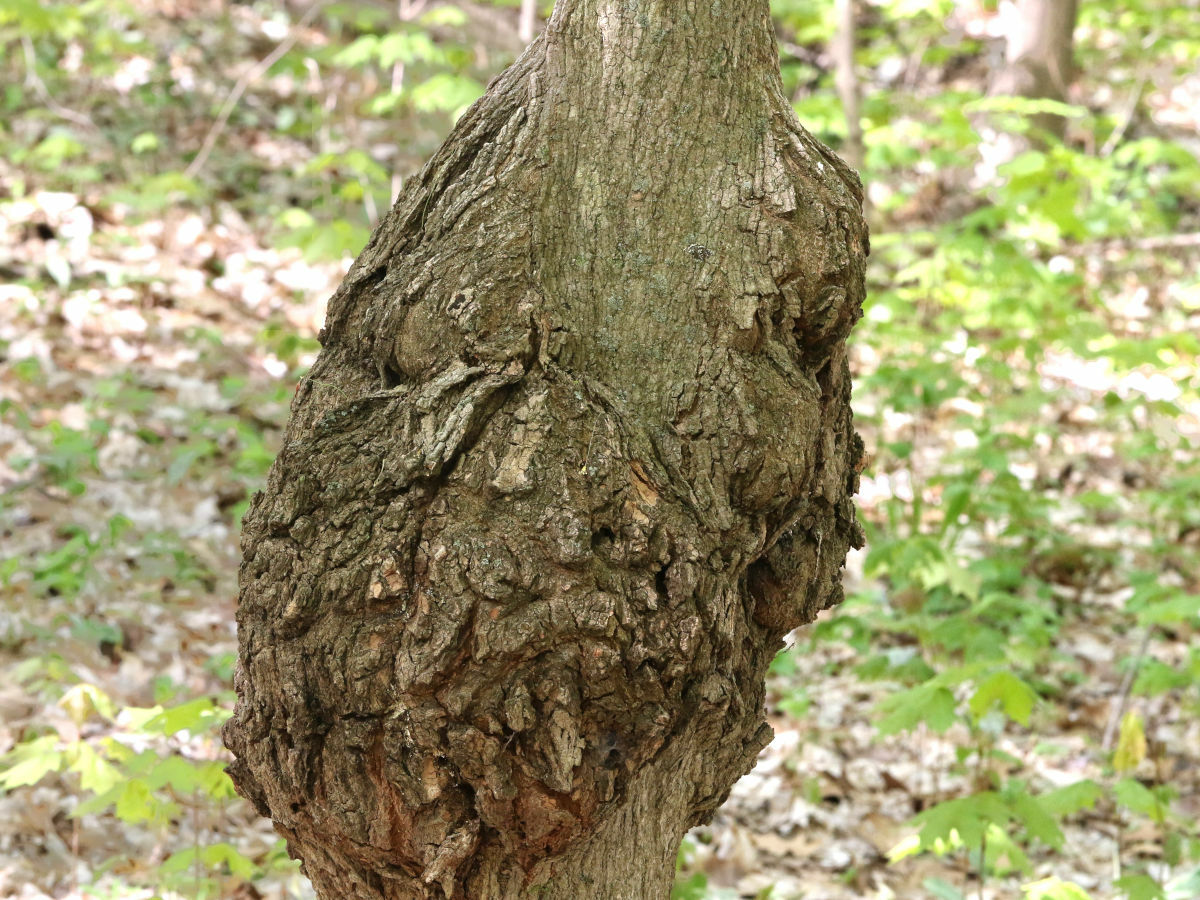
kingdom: Fungi
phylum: Ascomycota
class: Sordariomycetes
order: Xylariales
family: Diatrypaceae
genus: Eutypella
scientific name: Eutypella parasitica
